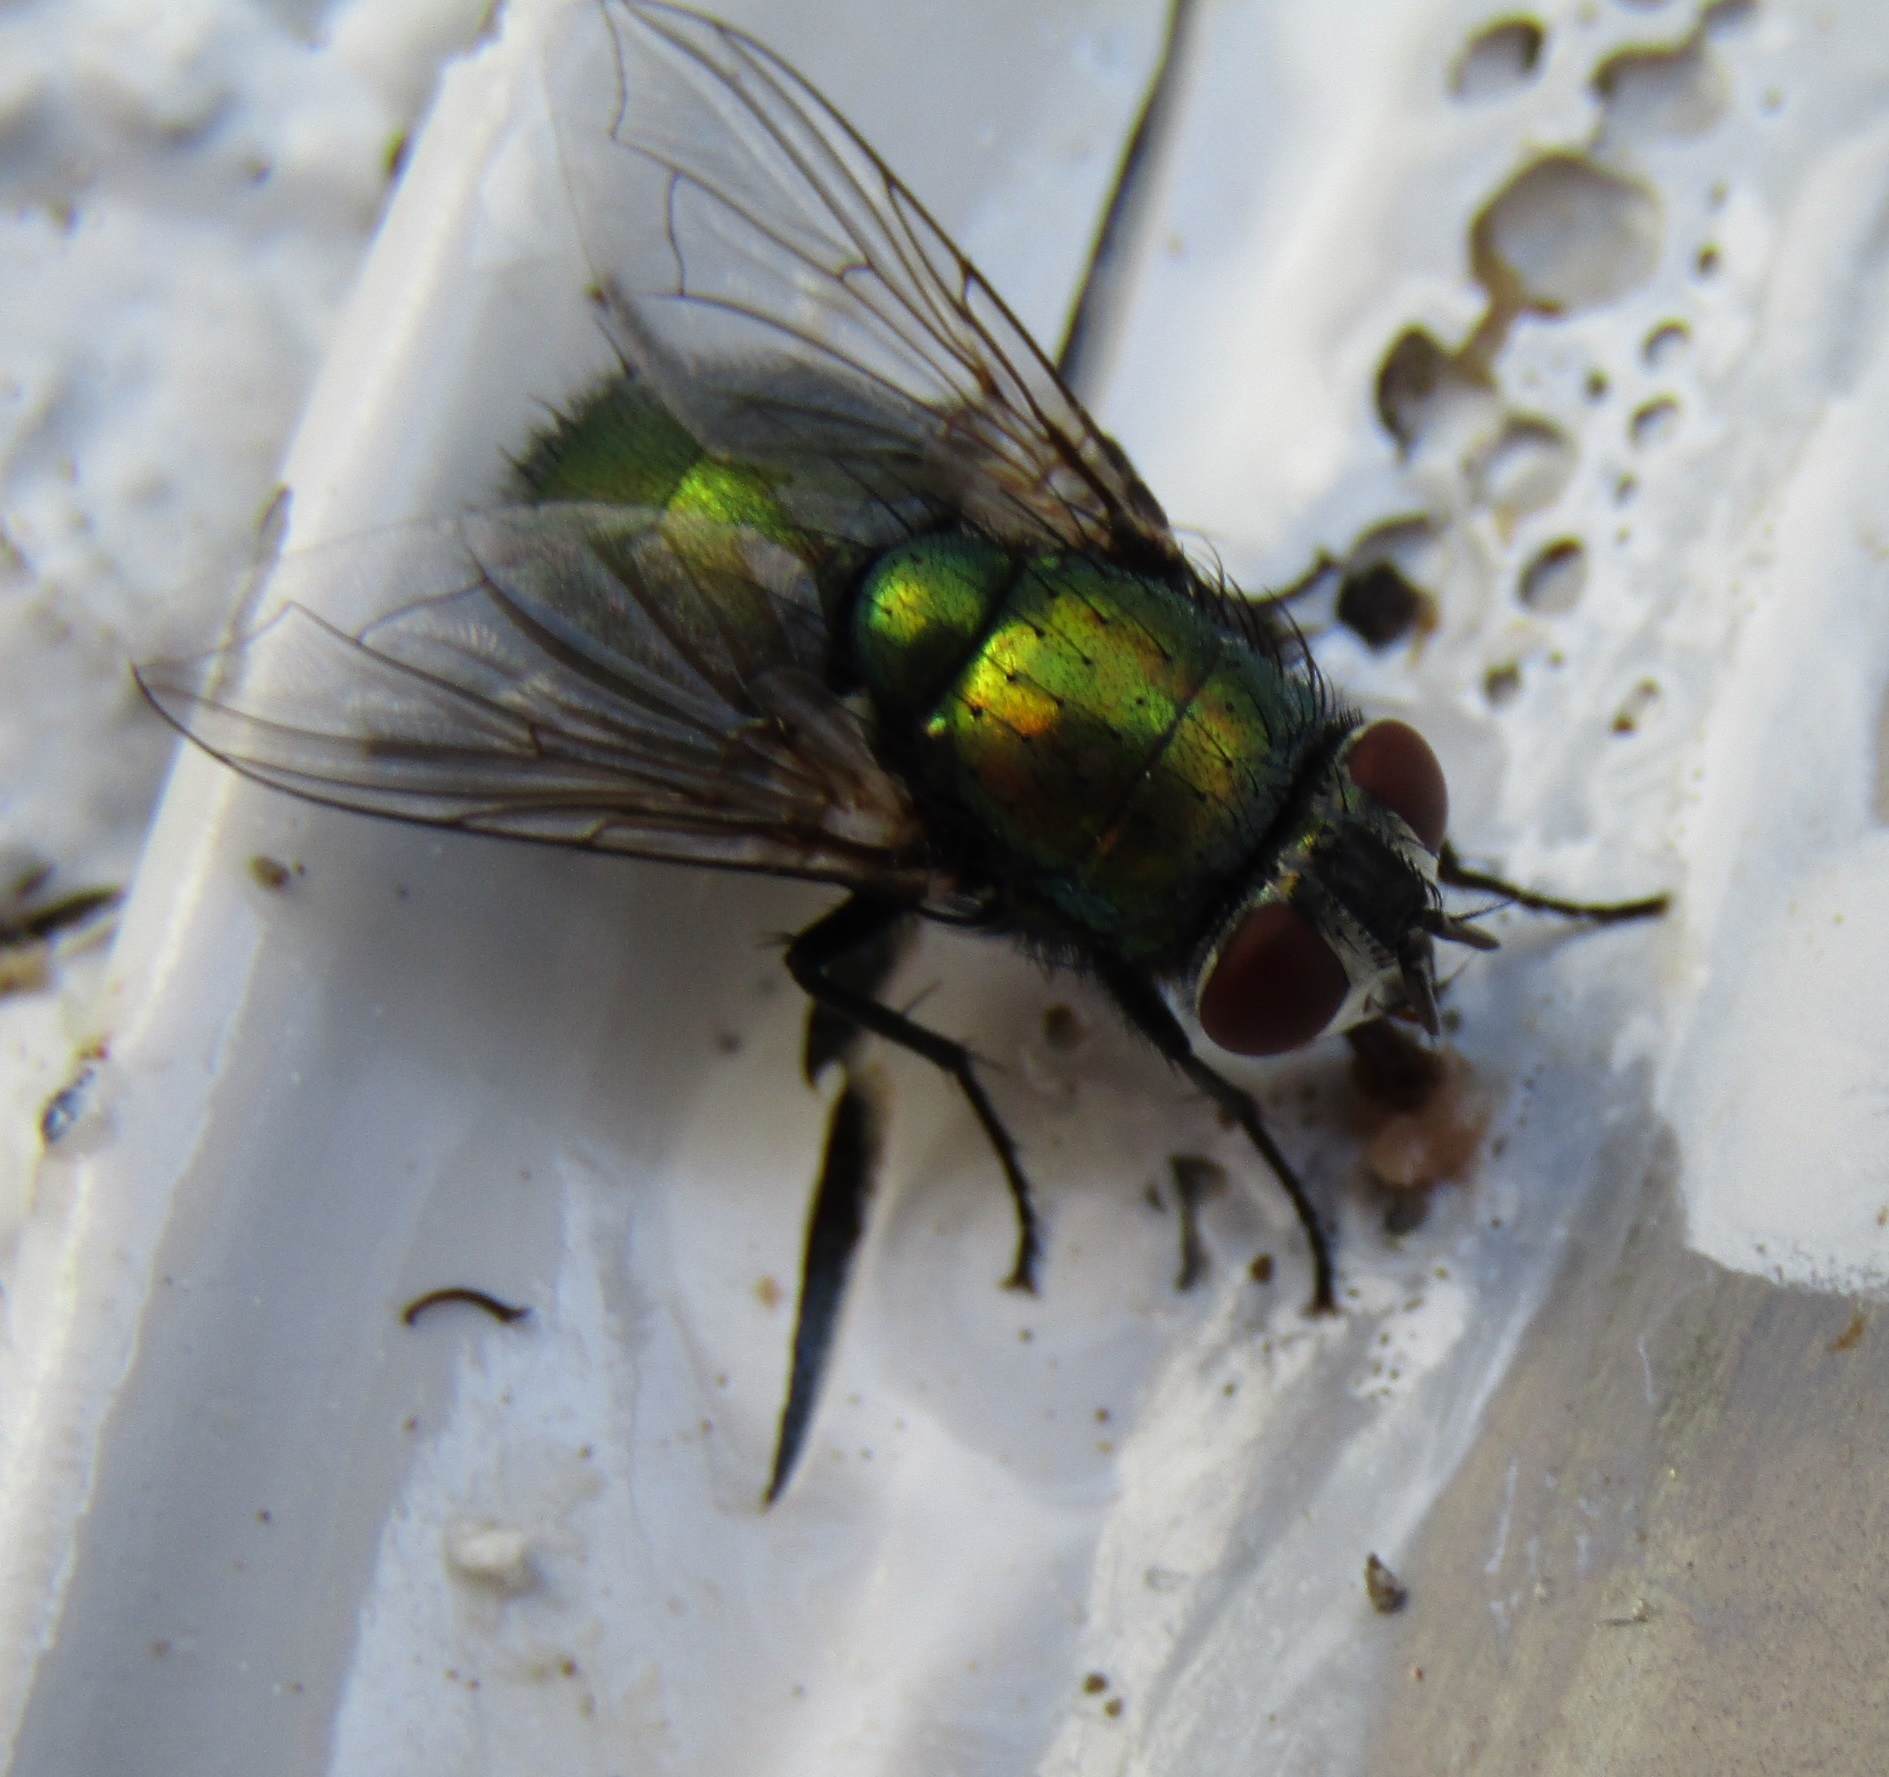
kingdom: Animalia
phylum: Arthropoda
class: Insecta
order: Diptera
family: Calliphoridae
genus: Lucilia
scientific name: Lucilia sericata
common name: Blow fly
